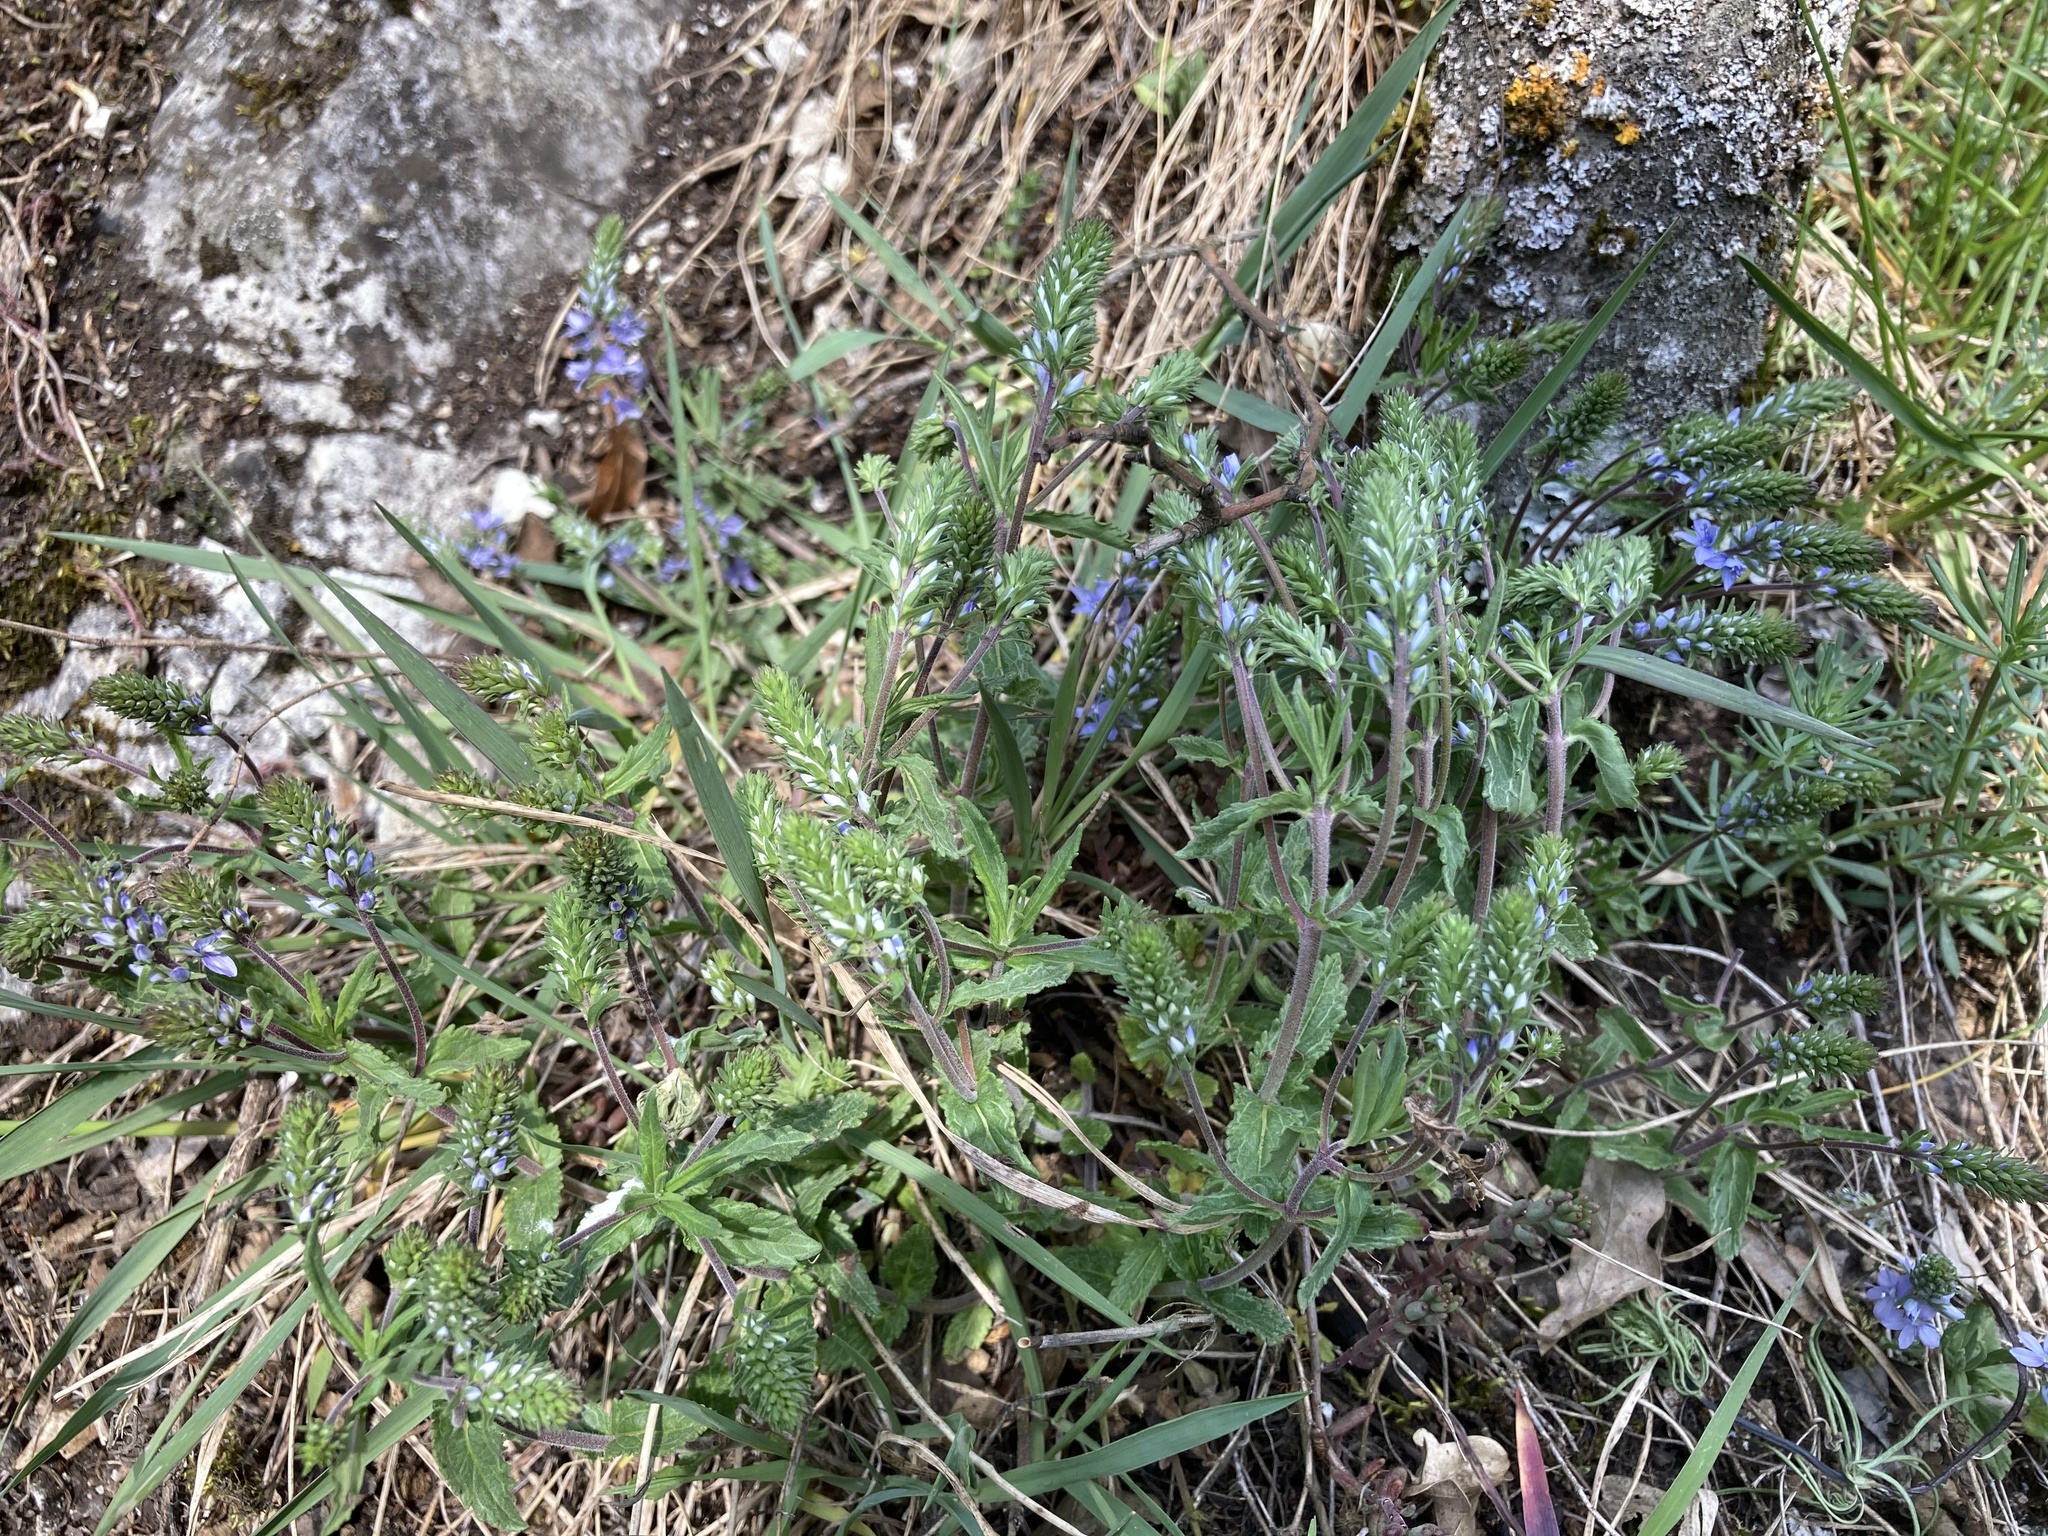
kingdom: Plantae
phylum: Tracheophyta
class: Magnoliopsida
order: Lamiales
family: Plantaginaceae
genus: Veronica
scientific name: Veronica prostrata
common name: Prostrate speedwell
